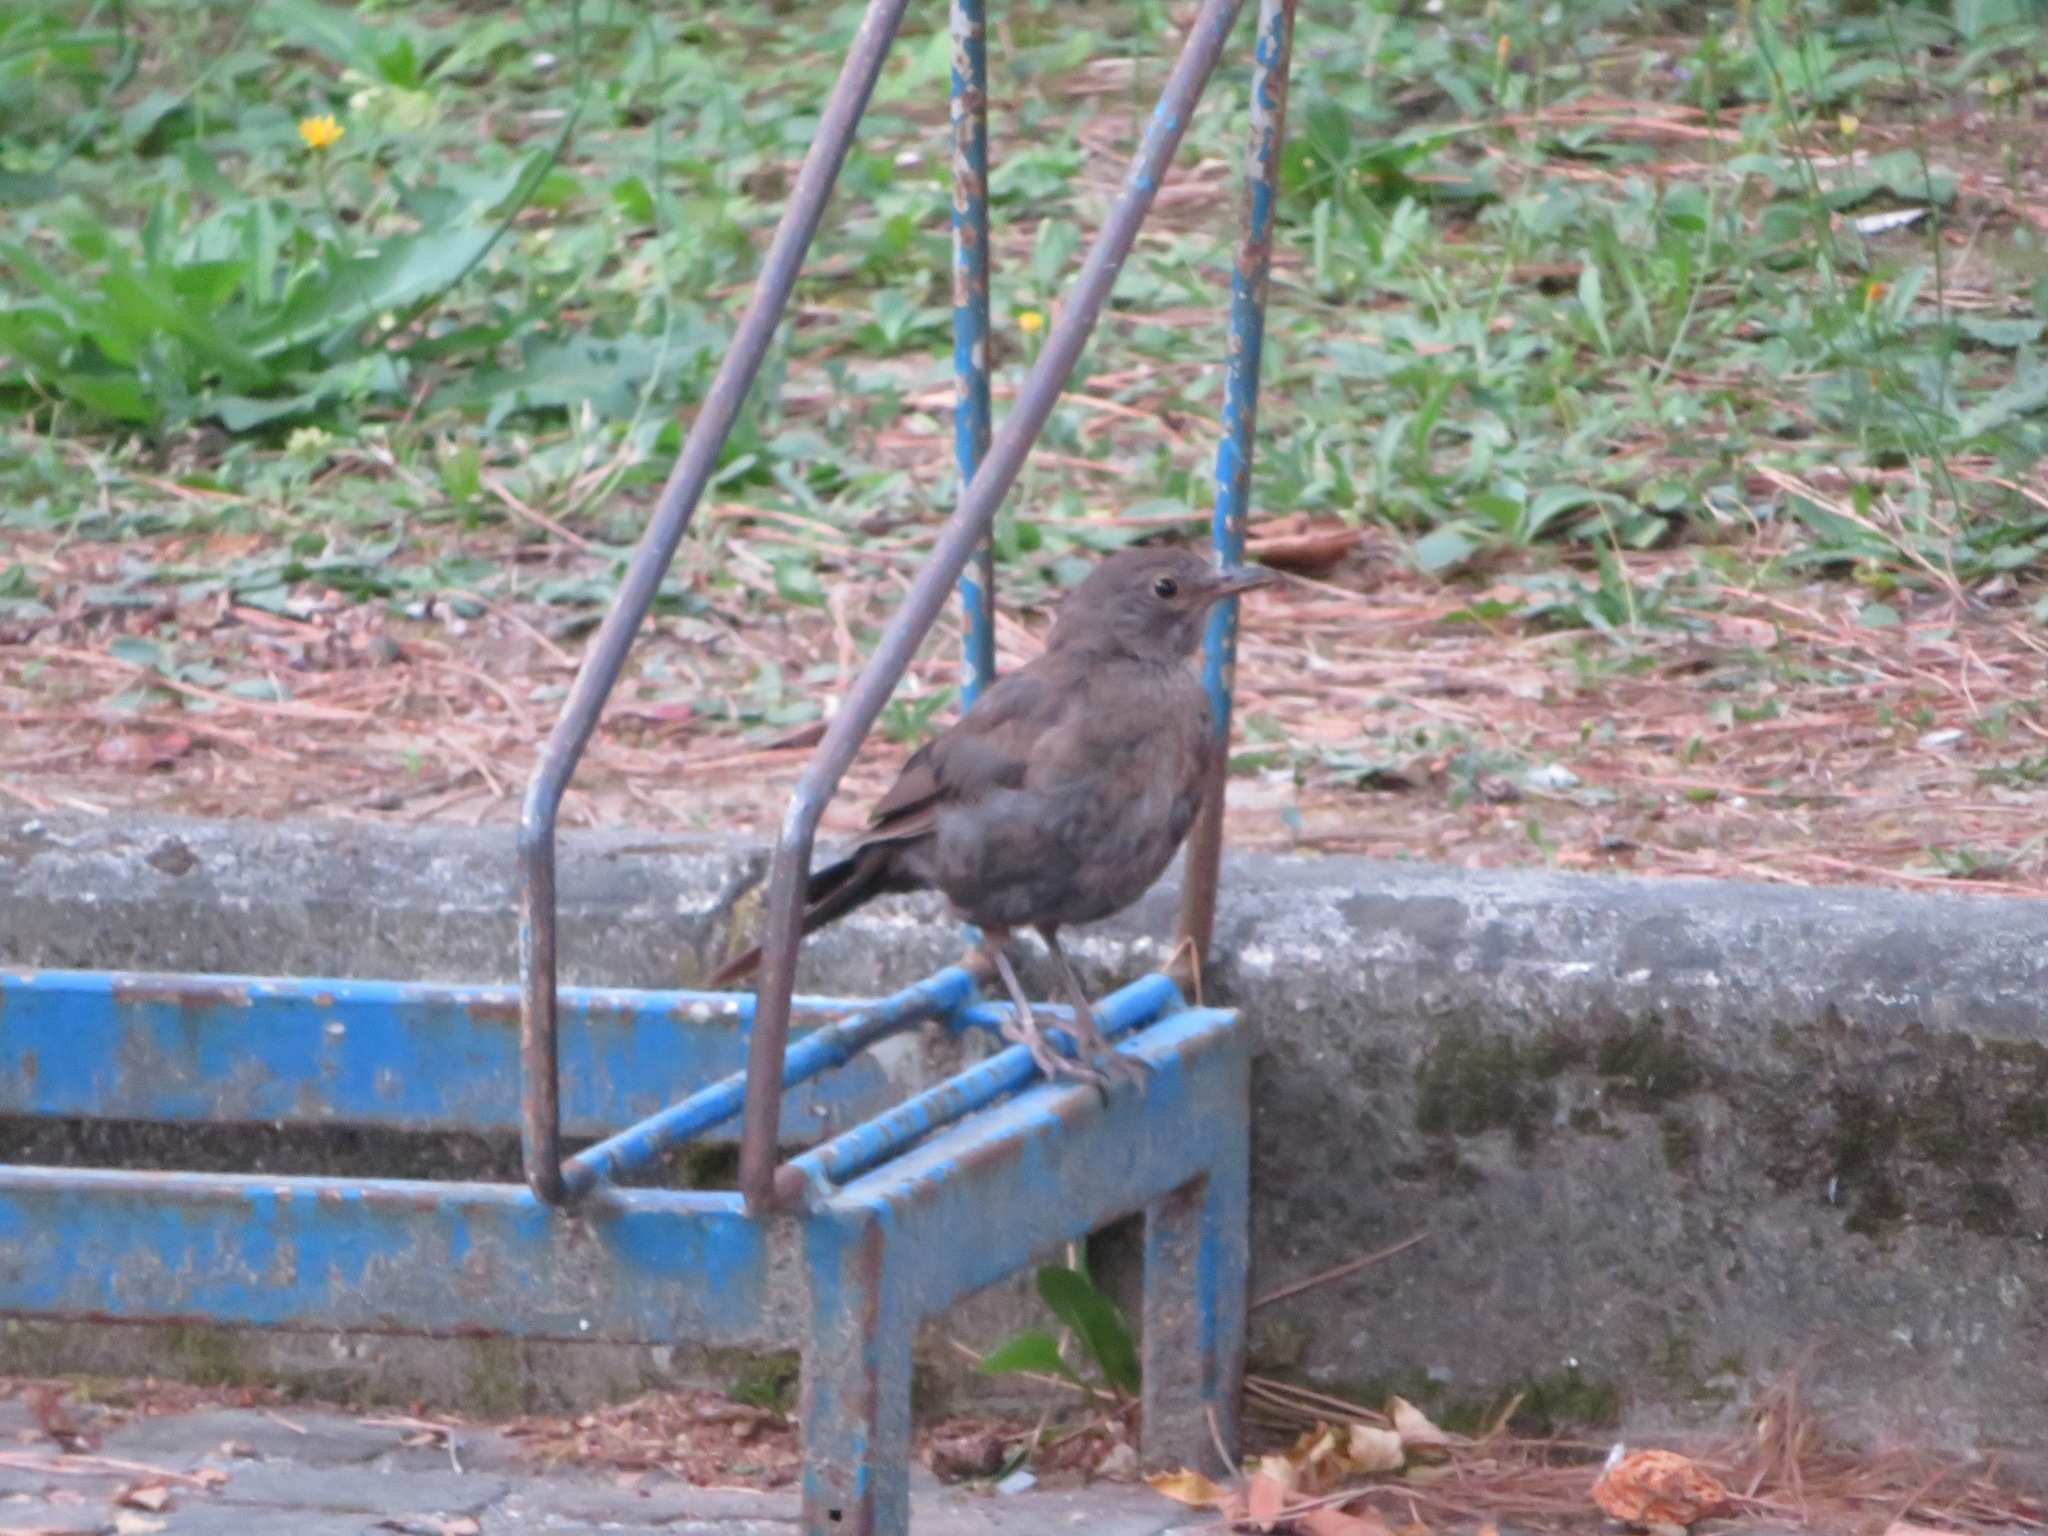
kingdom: Animalia
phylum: Chordata
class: Aves
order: Passeriformes
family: Turdidae
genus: Turdus
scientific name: Turdus merula
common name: Common blackbird
